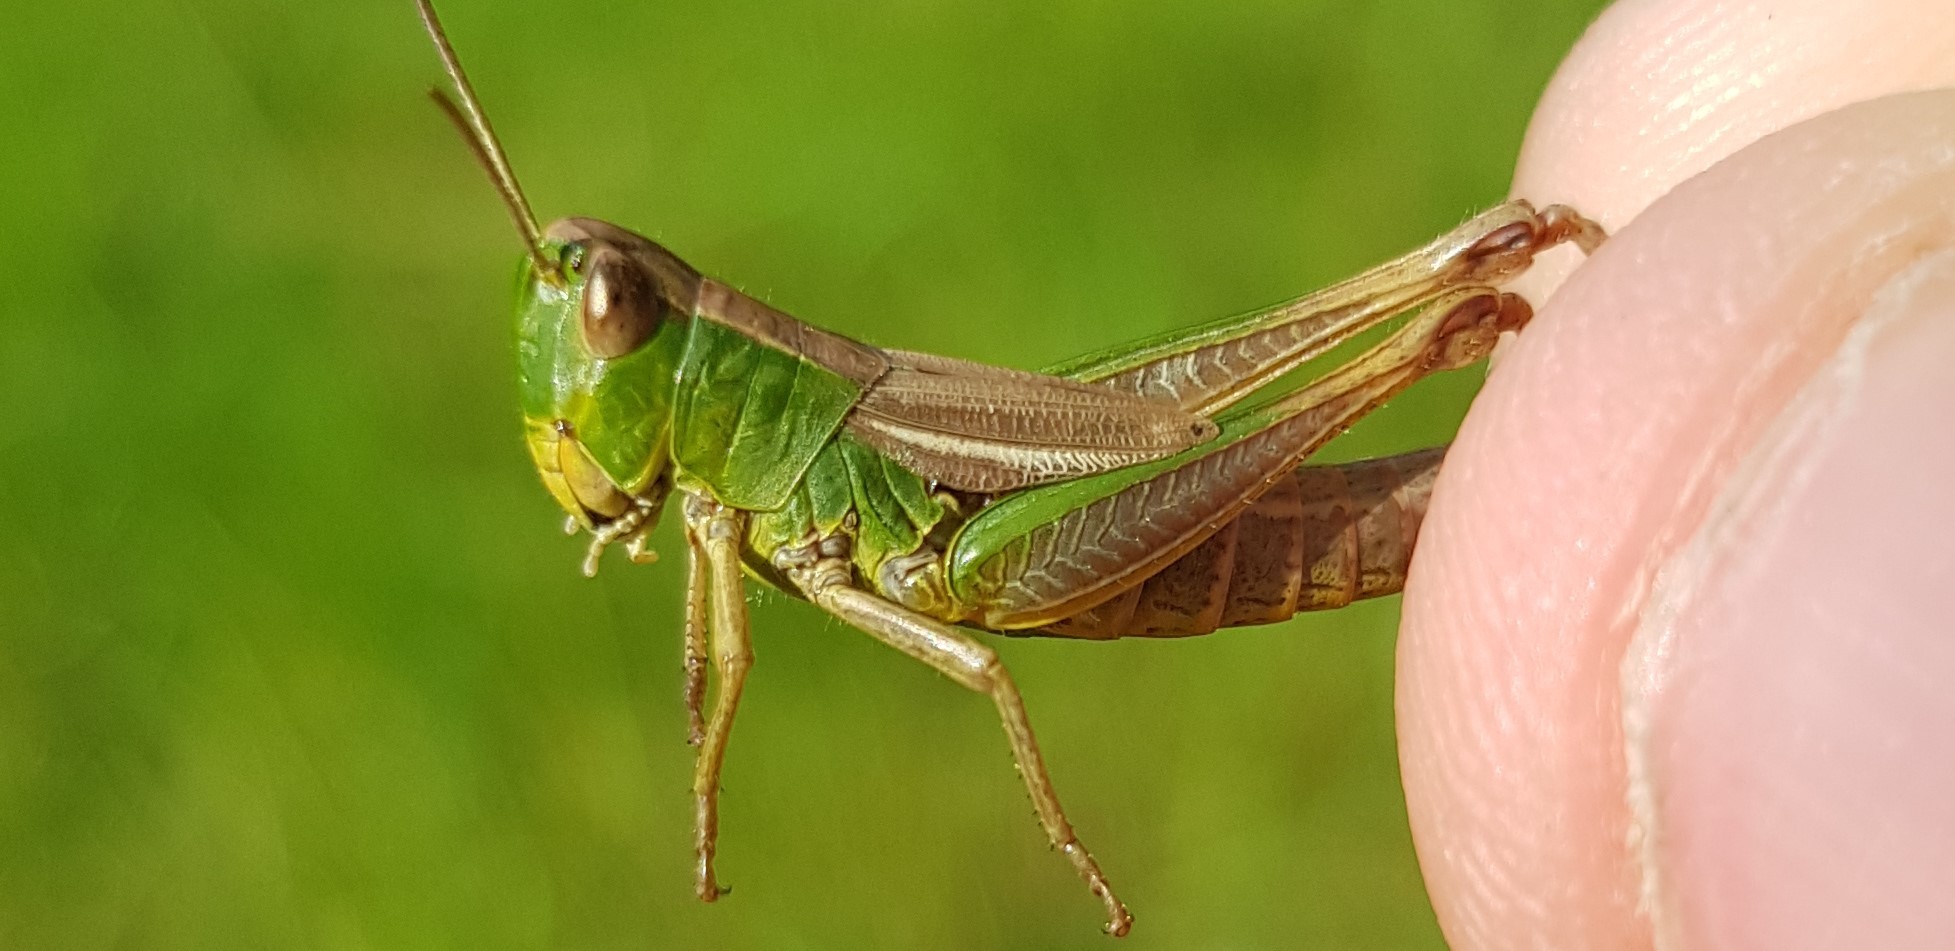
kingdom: Animalia
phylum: Arthropoda
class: Insecta
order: Orthoptera
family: Acrididae
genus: Pseudochorthippus
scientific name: Pseudochorthippus parallelus
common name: Meadow grasshopper
